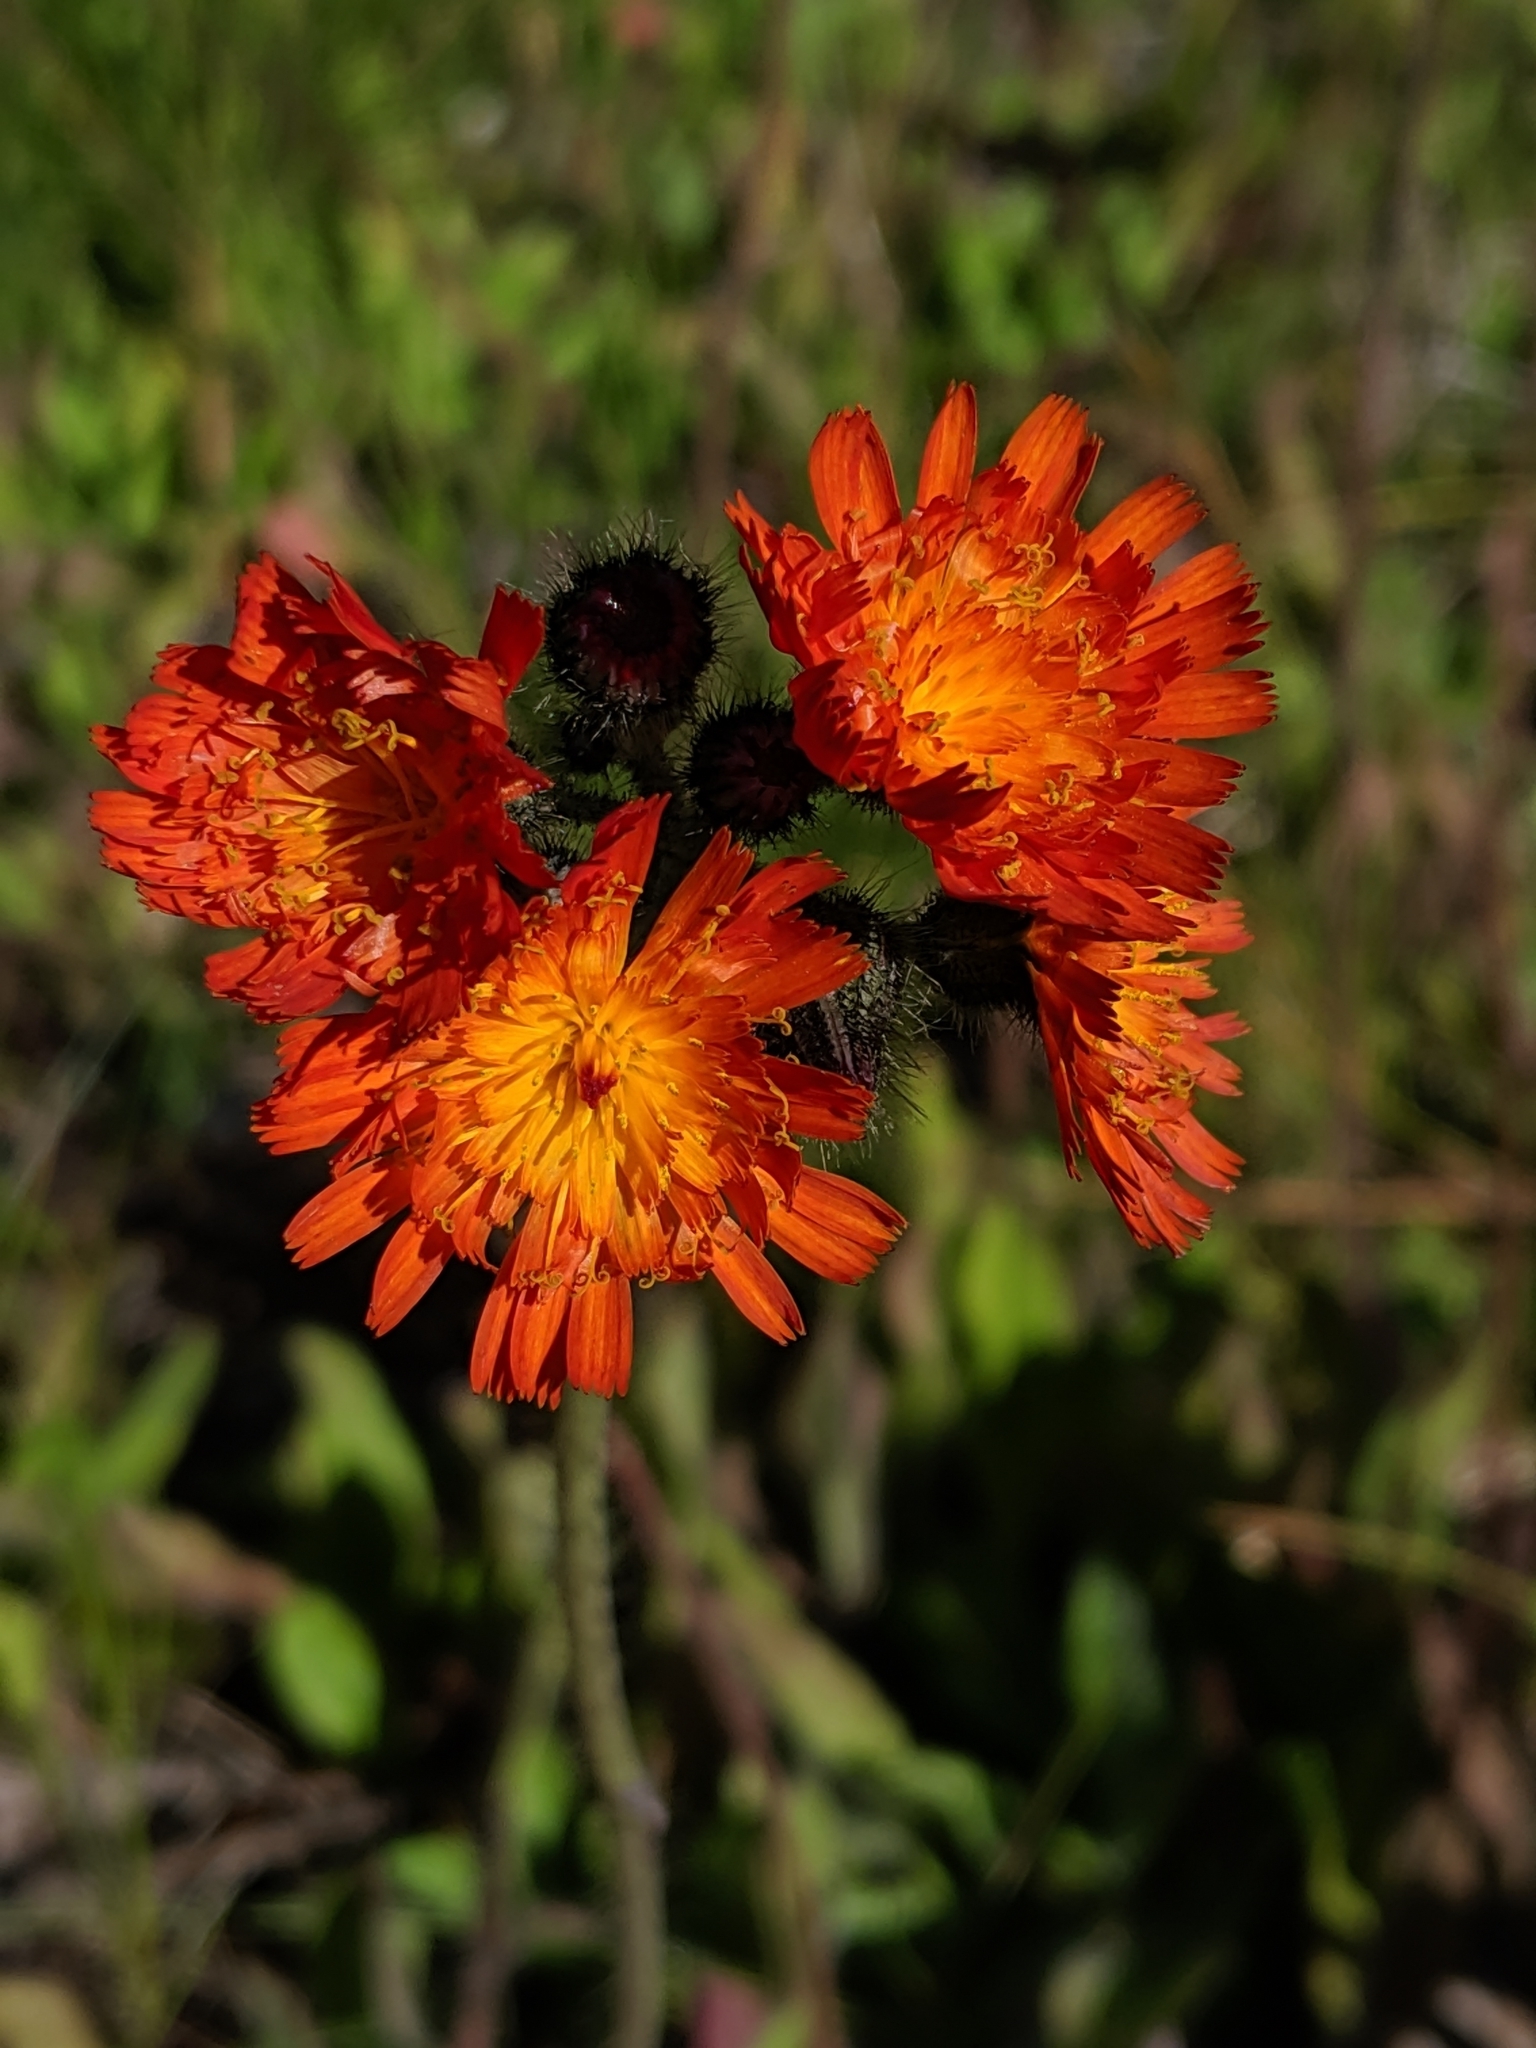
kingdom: Plantae
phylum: Tracheophyta
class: Magnoliopsida
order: Asterales
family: Asteraceae
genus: Pilosella
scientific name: Pilosella aurantiaca
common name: Fox-and-cubs
